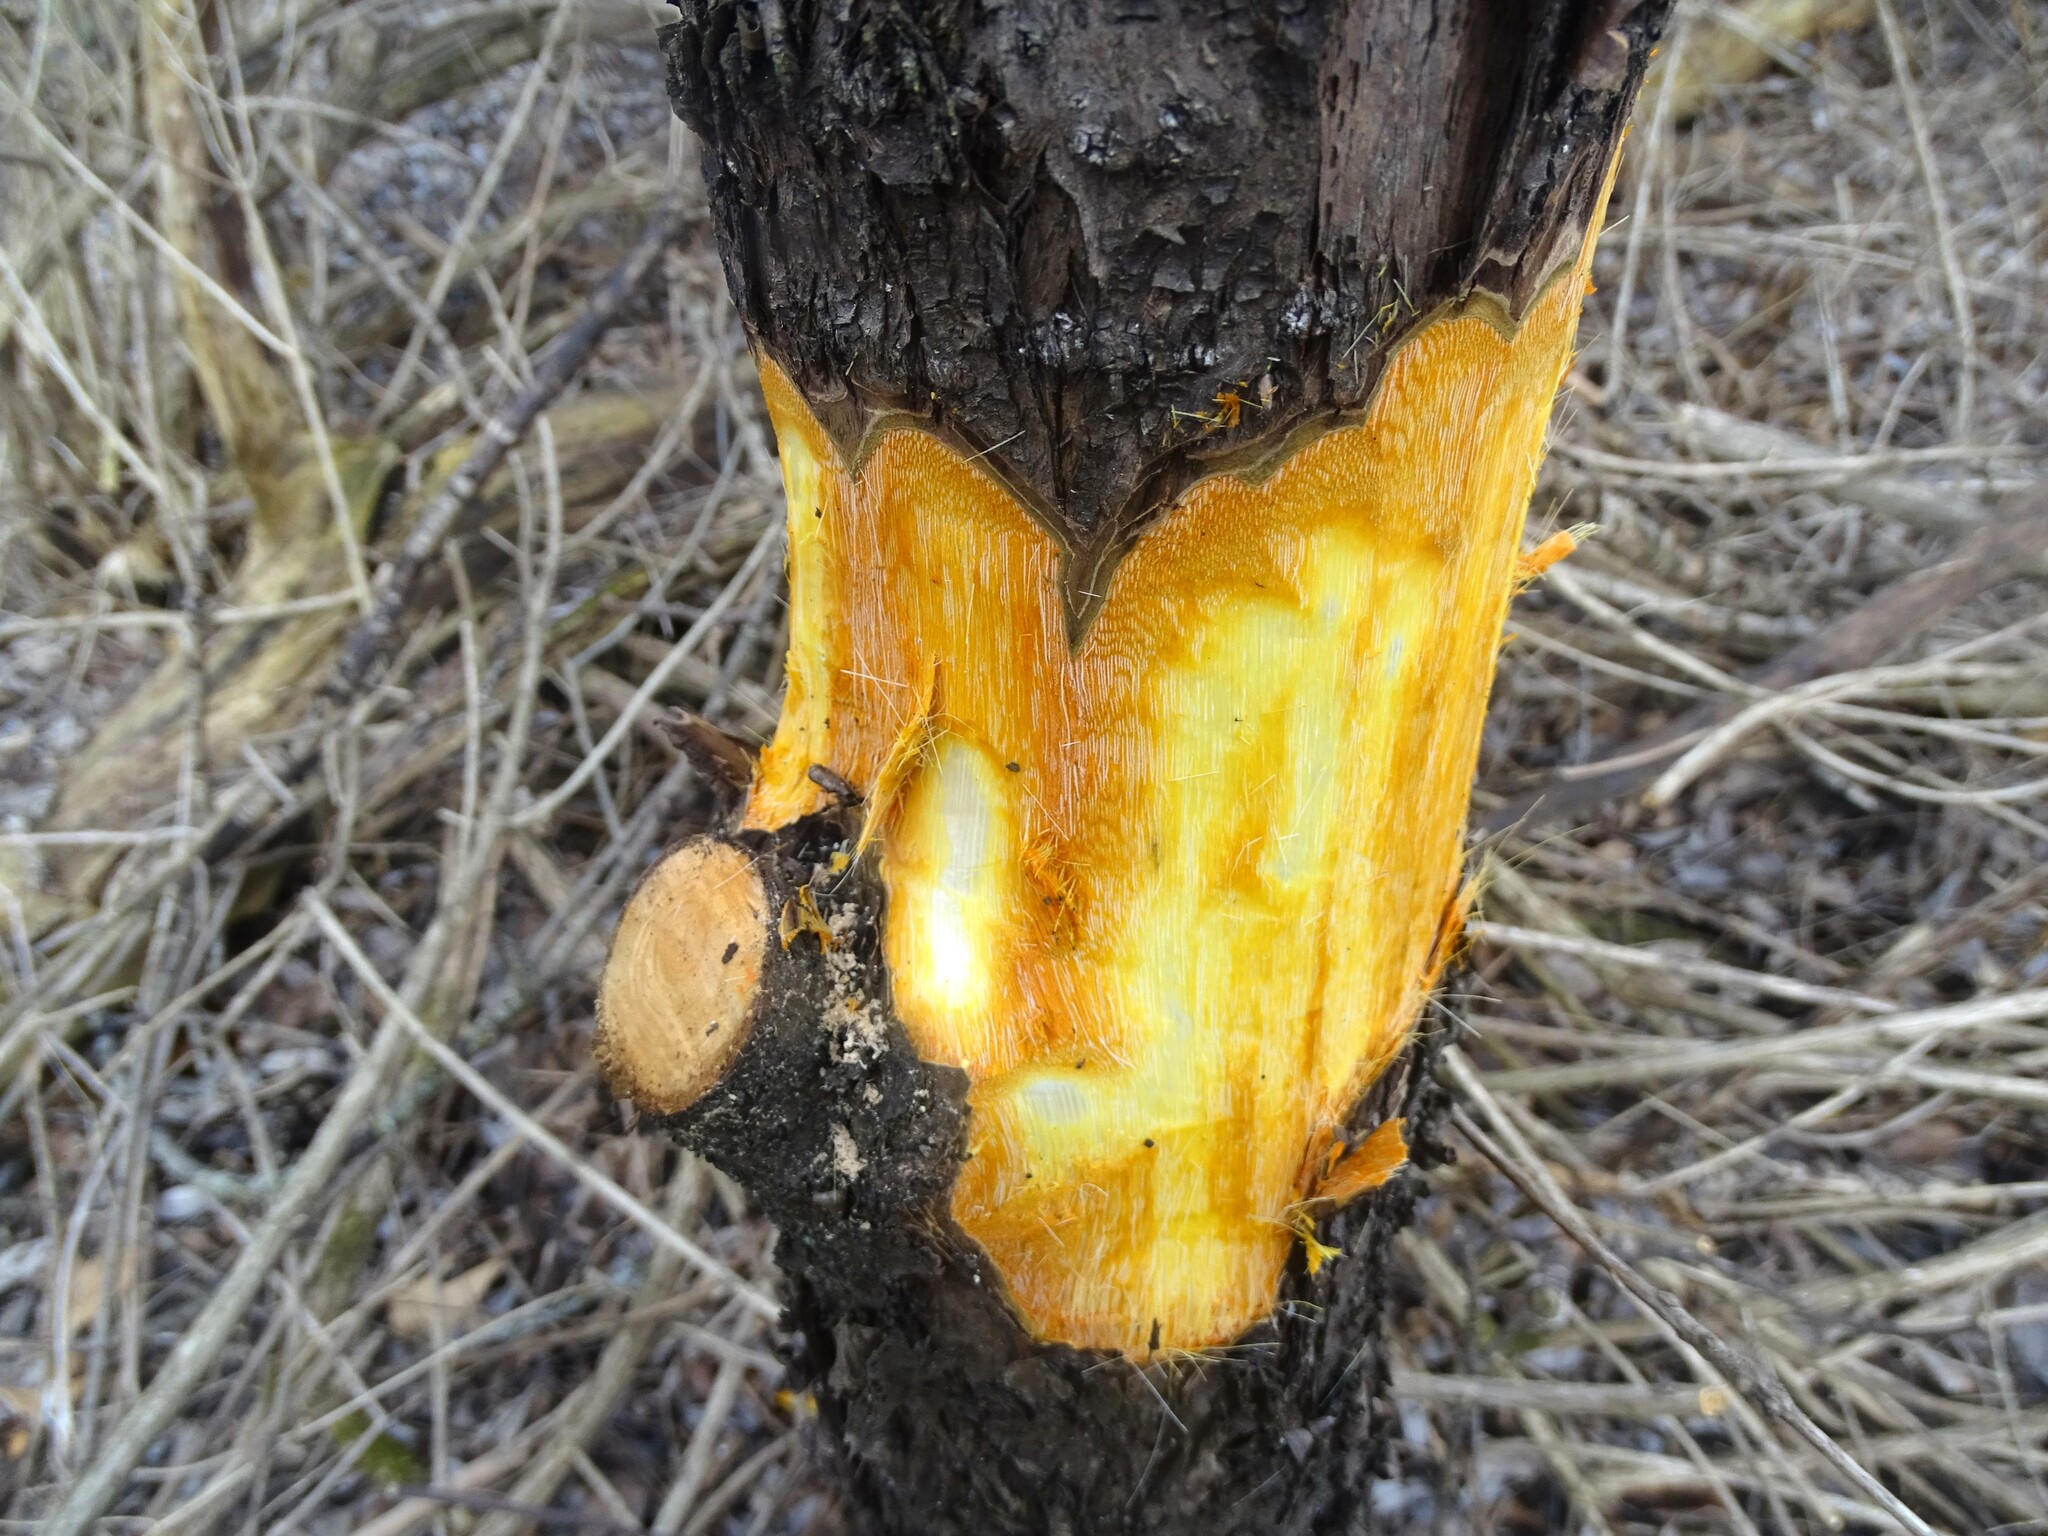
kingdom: Plantae
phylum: Tracheophyta
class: Magnoliopsida
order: Rosales
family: Rhamnaceae
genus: Rhamnus
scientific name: Rhamnus cathartica
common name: Common buckthorn
